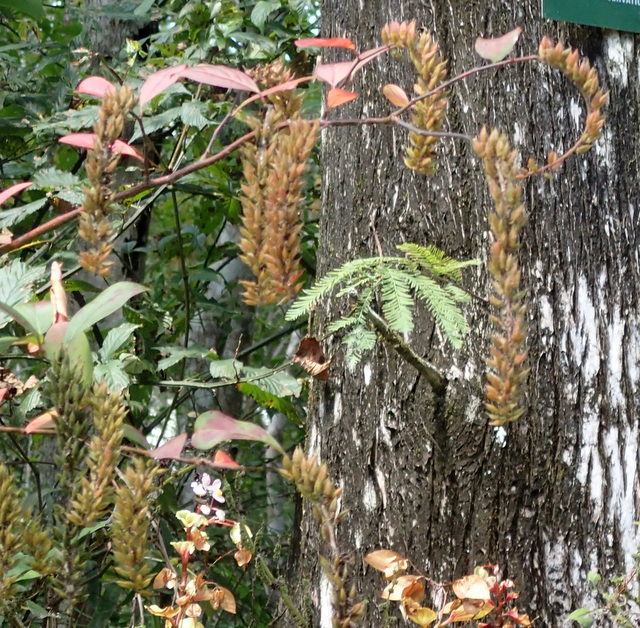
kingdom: Plantae
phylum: Tracheophyta
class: Magnoliopsida
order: Saxifragales
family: Iteaceae
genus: Itea
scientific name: Itea virginica
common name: Sweetspire
